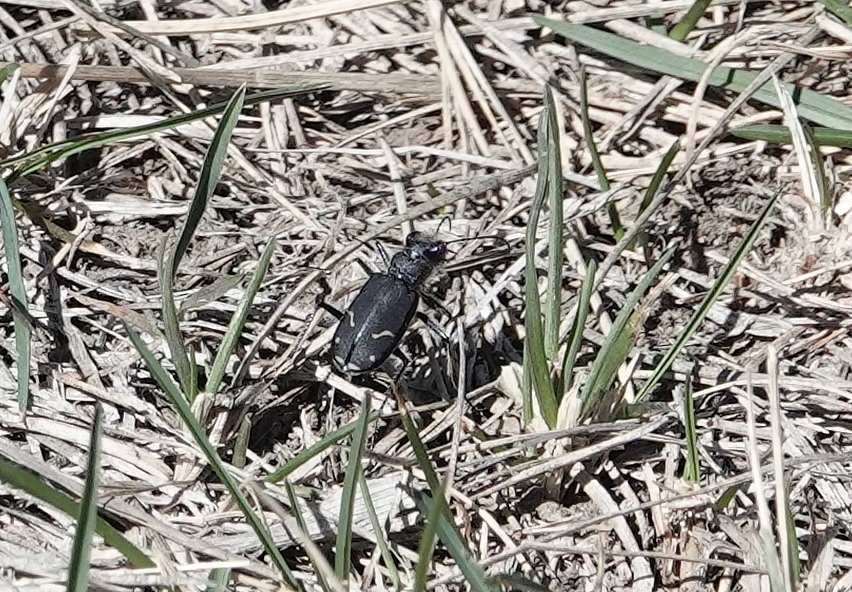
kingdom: Animalia
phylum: Arthropoda
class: Insecta
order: Coleoptera
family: Carabidae
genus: Cicindela
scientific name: Cicindela purpurea
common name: Cow path tiger beetle
